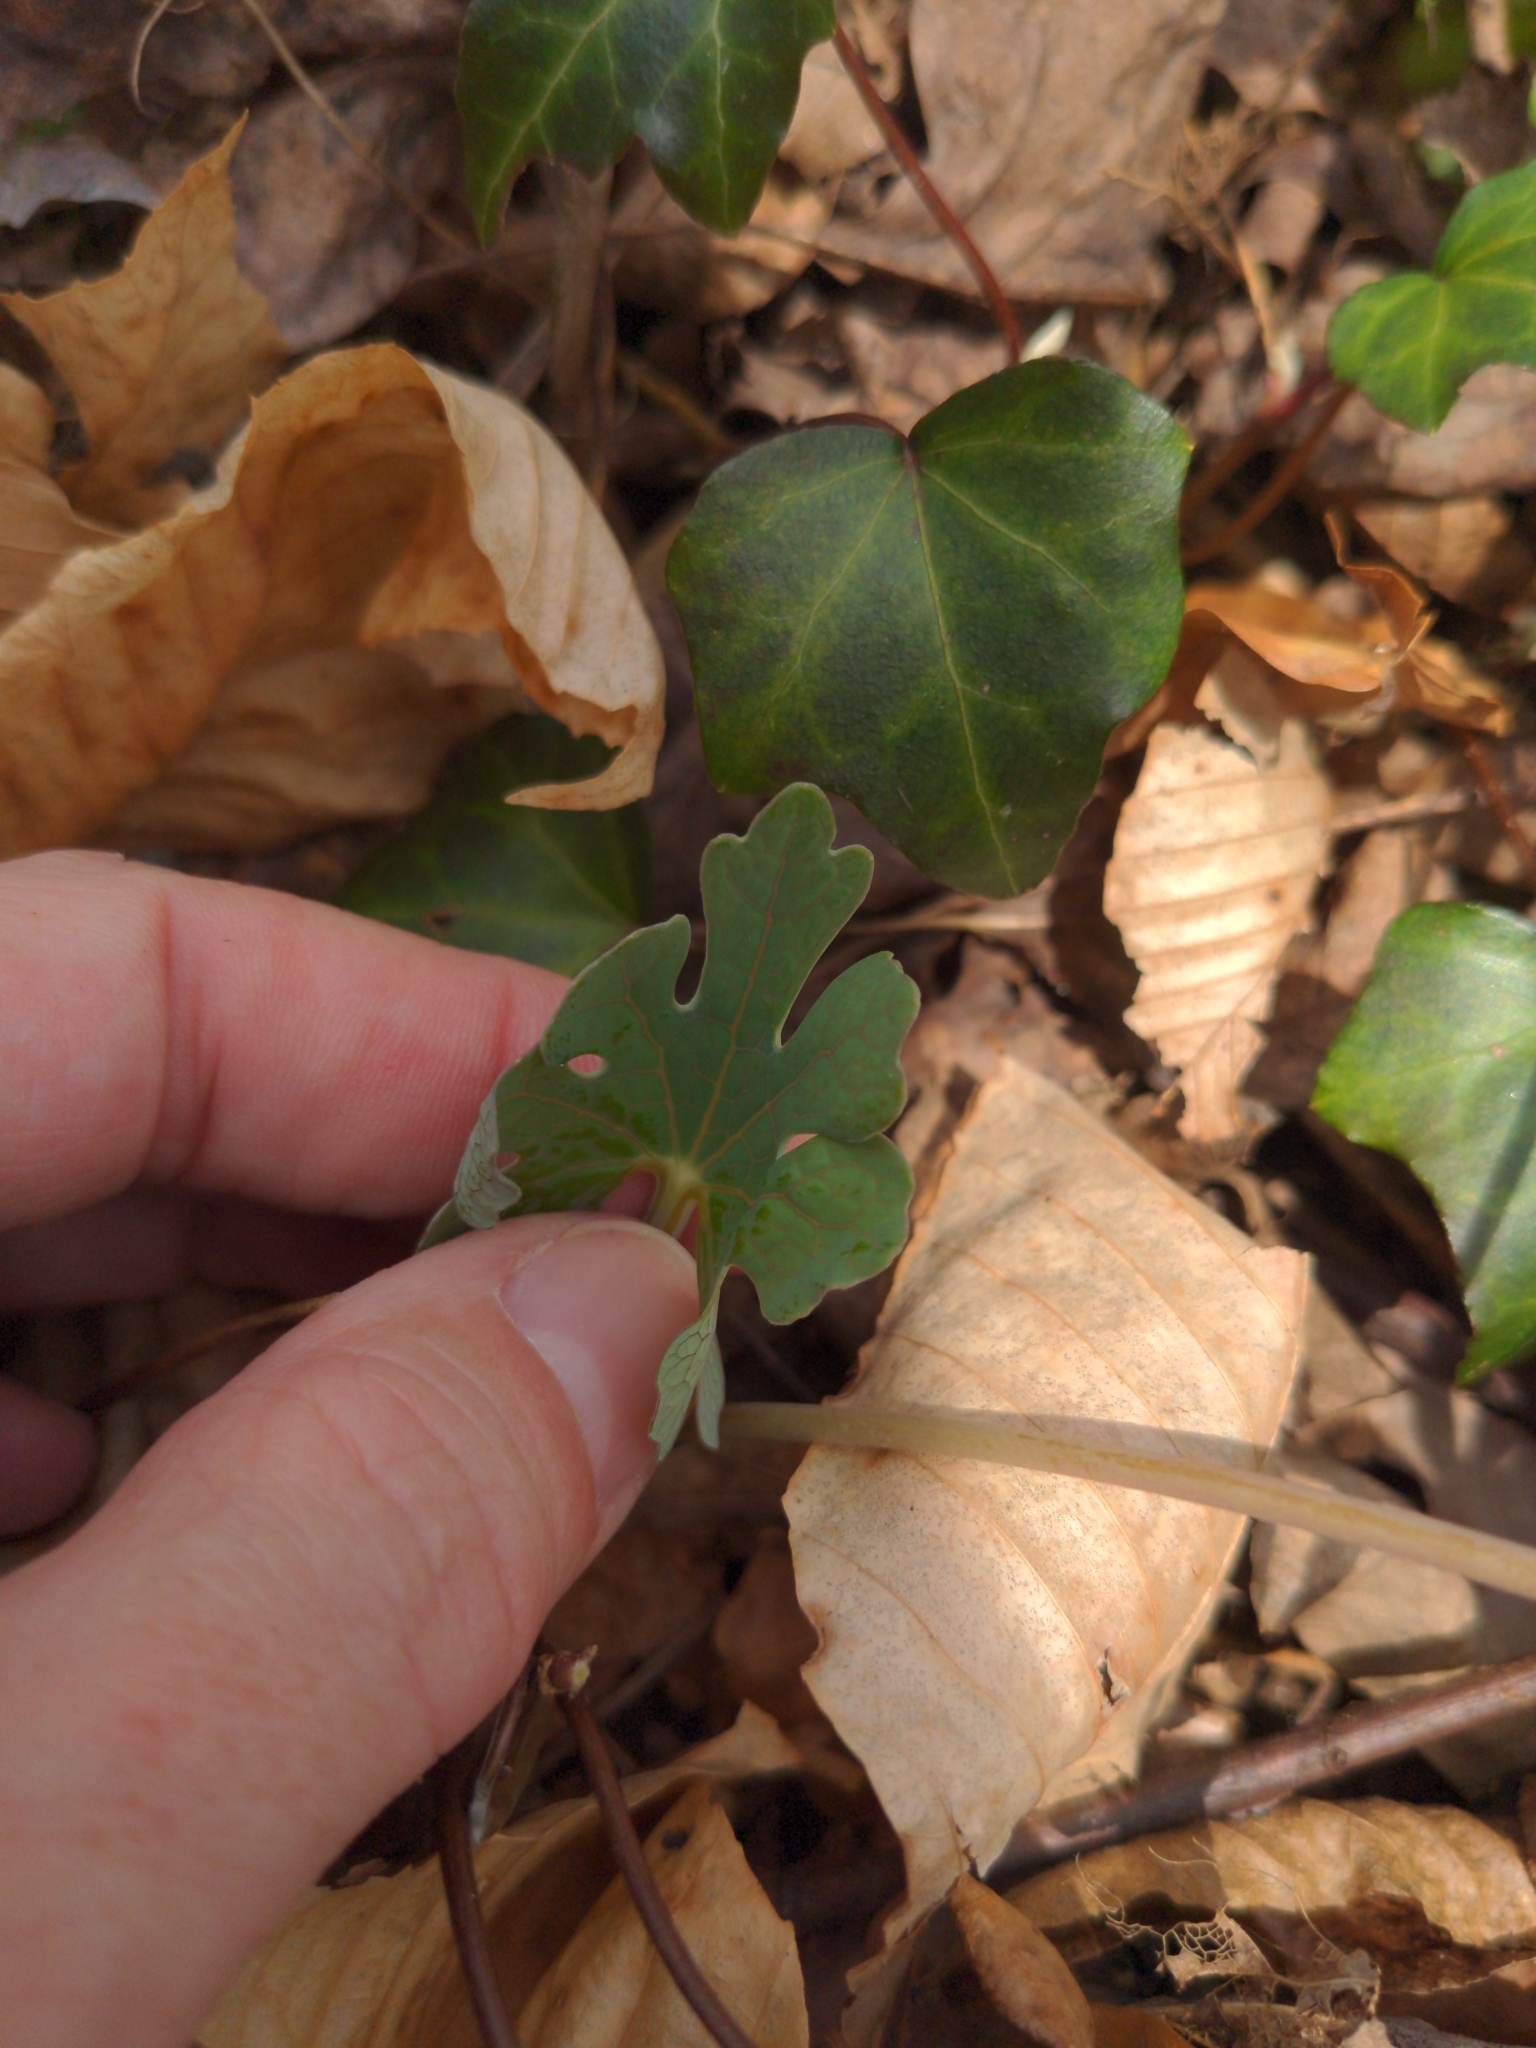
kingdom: Plantae
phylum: Tracheophyta
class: Magnoliopsida
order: Ranunculales
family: Papaveraceae
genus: Sanguinaria
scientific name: Sanguinaria canadensis
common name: Bloodroot
